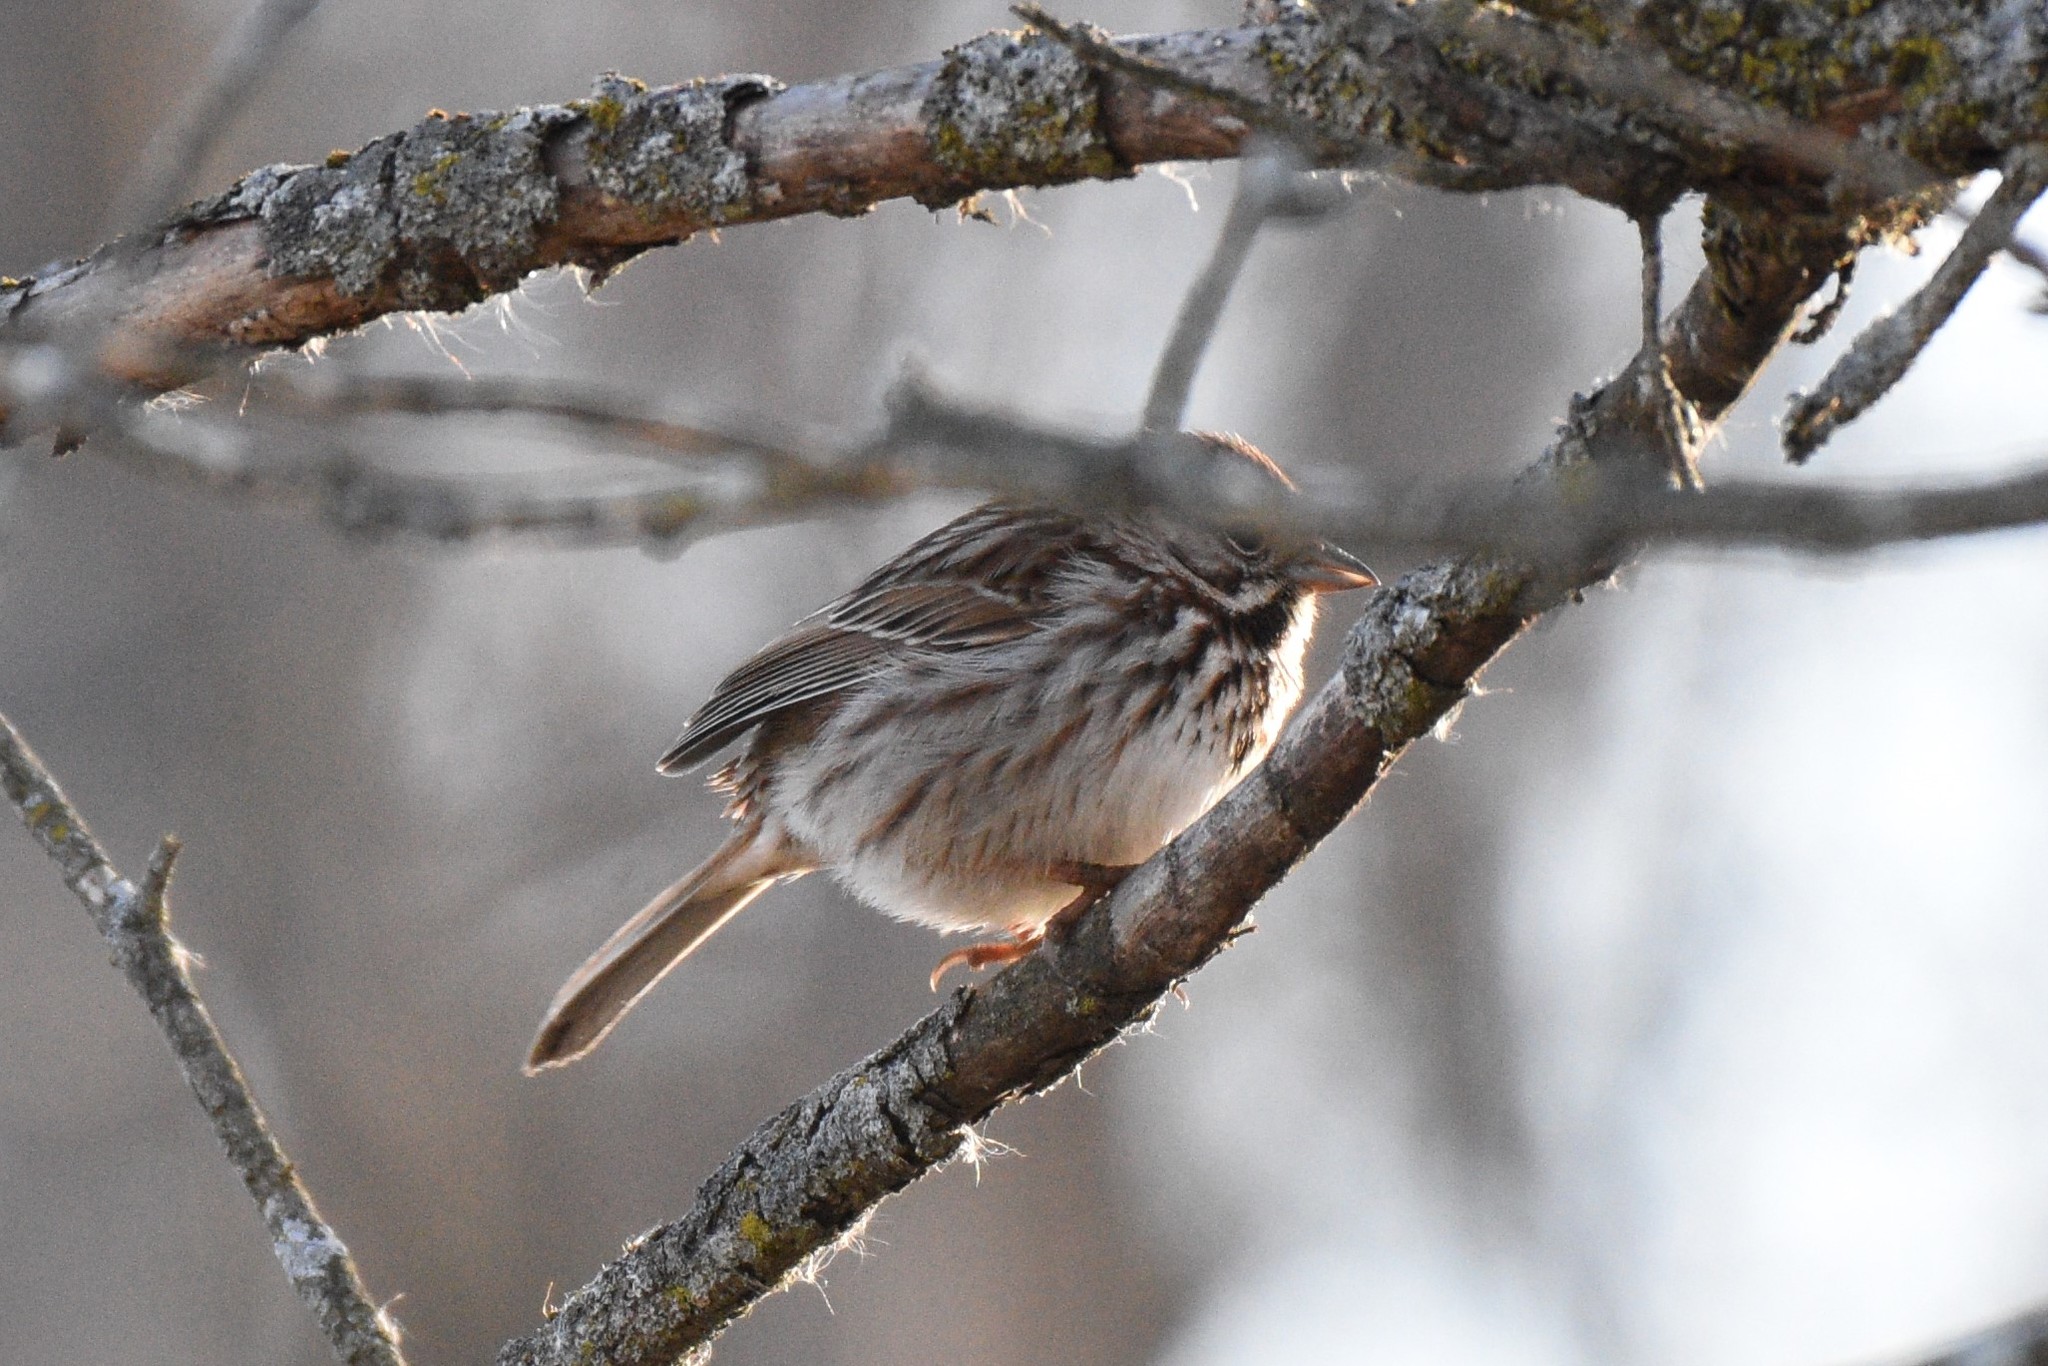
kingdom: Animalia
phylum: Chordata
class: Aves
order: Passeriformes
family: Passerellidae
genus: Melospiza
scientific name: Melospiza melodia
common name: Song sparrow
